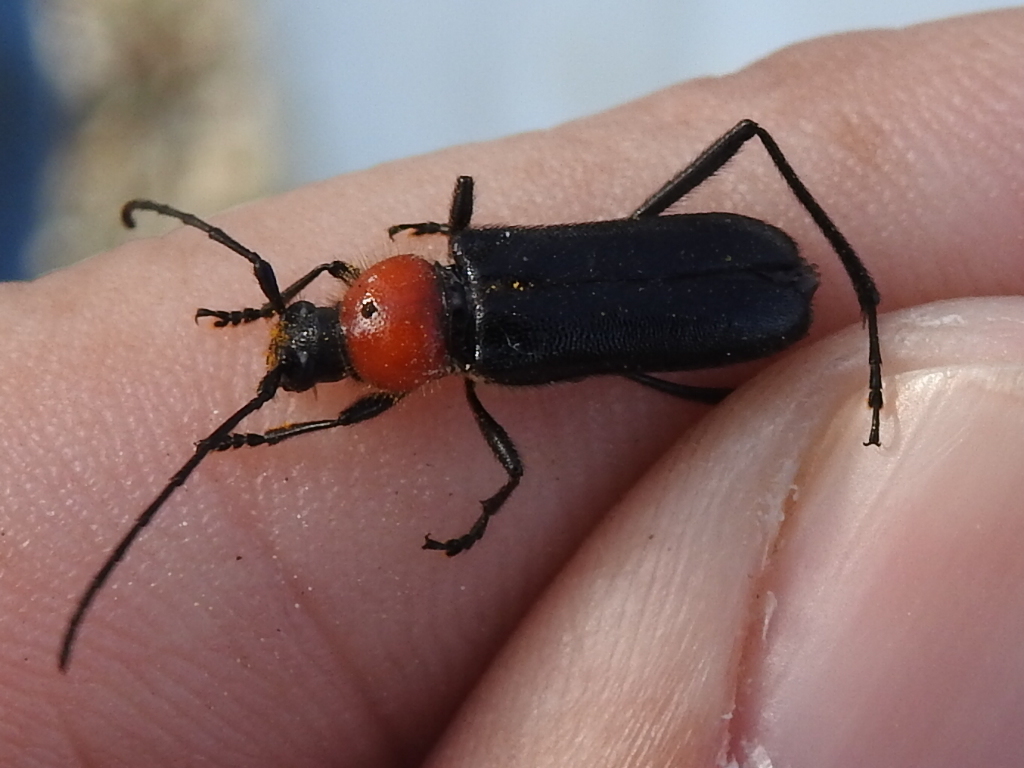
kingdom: Animalia
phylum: Arthropoda
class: Insecta
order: Coleoptera
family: Cerambycidae
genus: Batyle
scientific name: Batyle ignicollis
